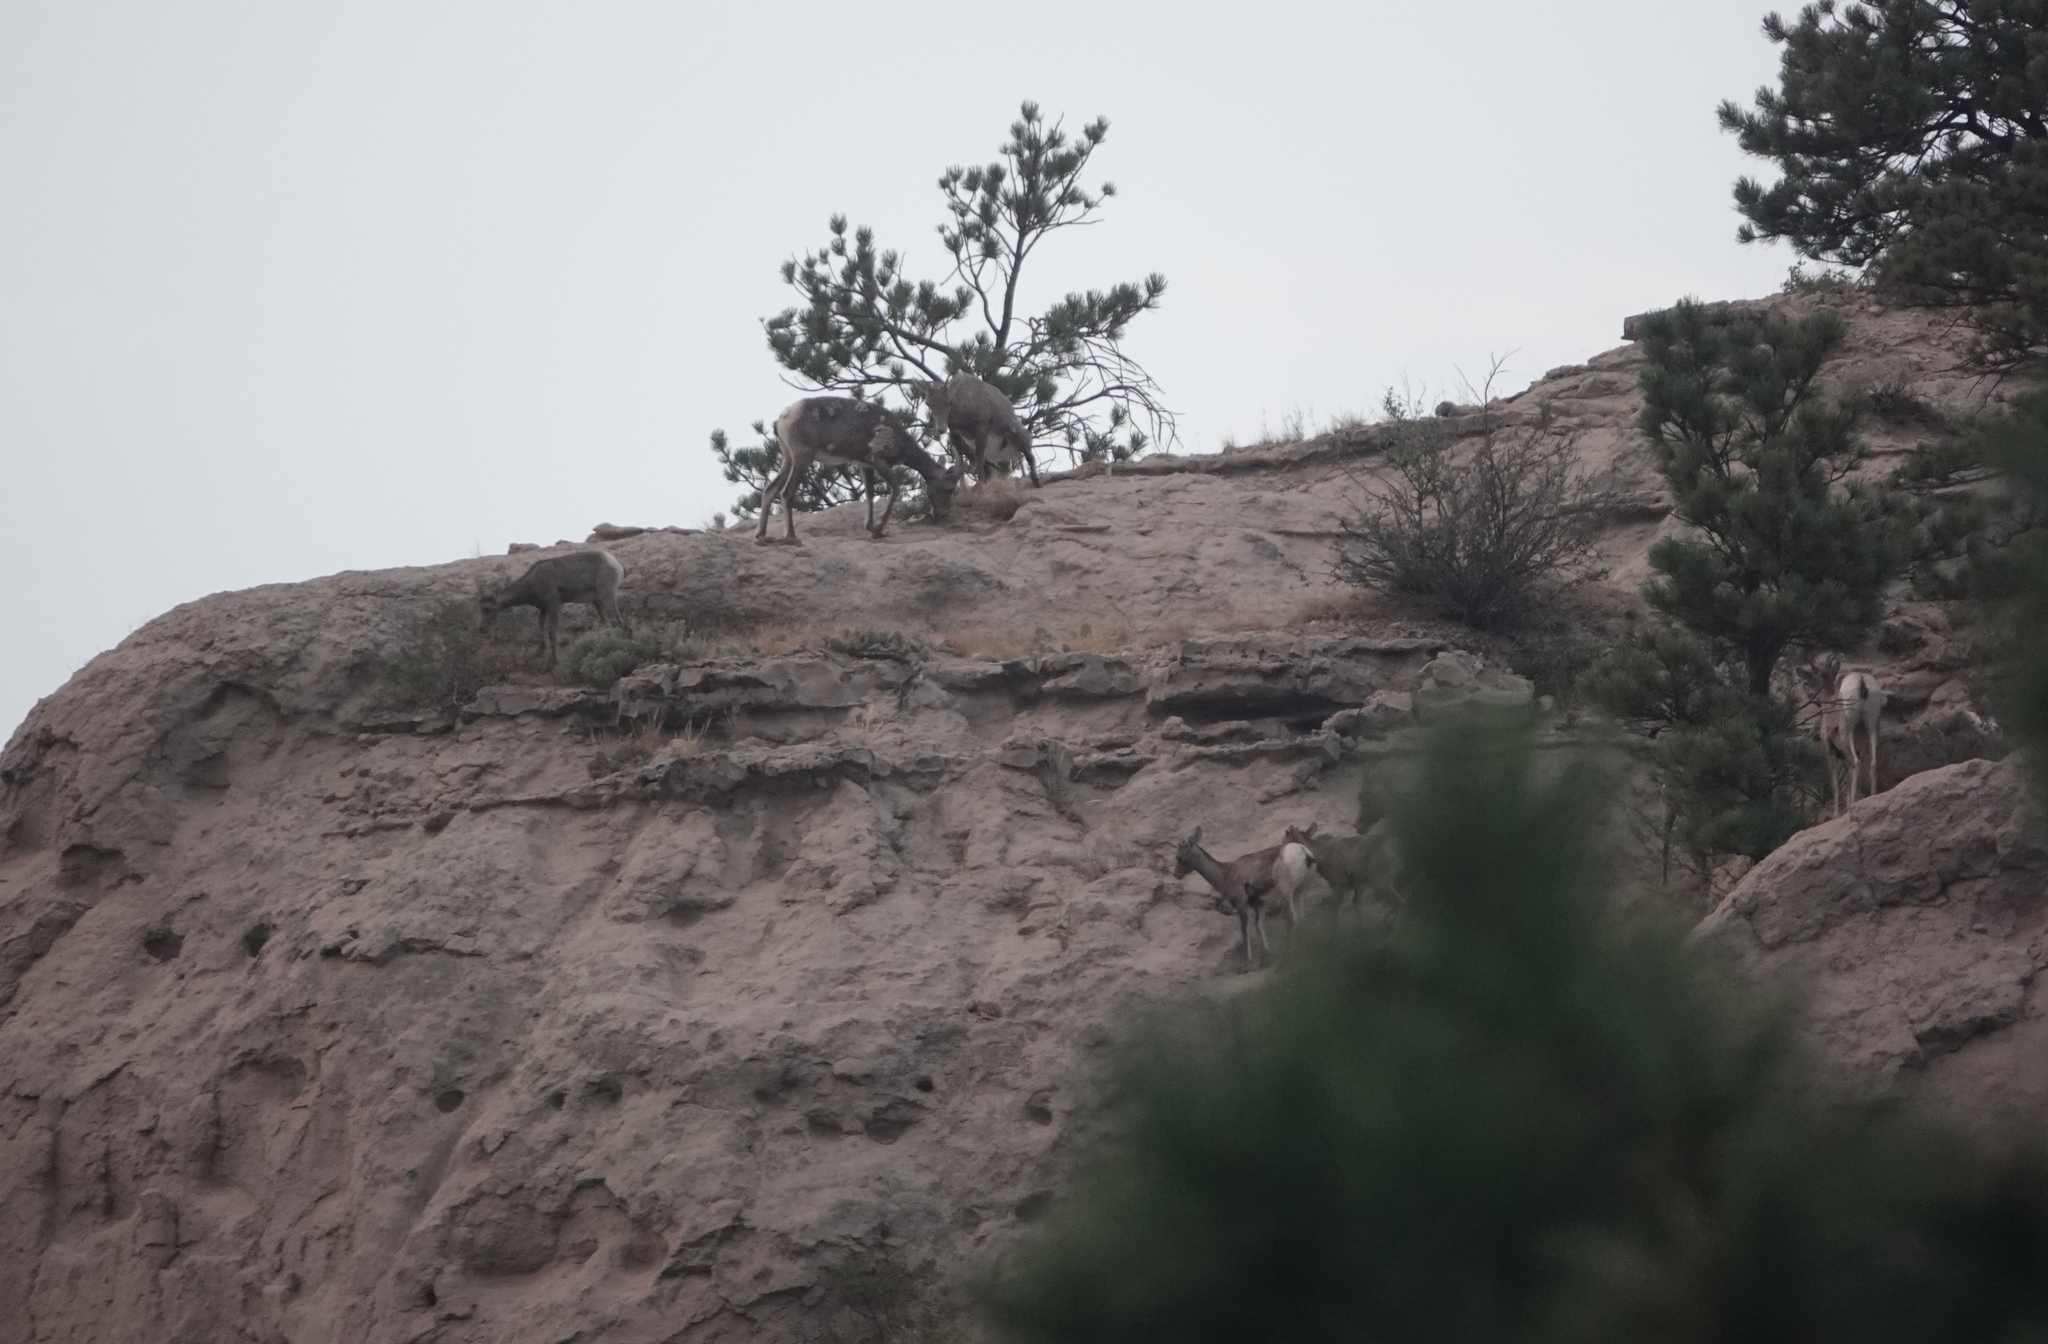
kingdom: Animalia
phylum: Chordata
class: Mammalia
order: Artiodactyla
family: Bovidae
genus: Ovis
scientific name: Ovis canadensis
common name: Bighorn sheep
